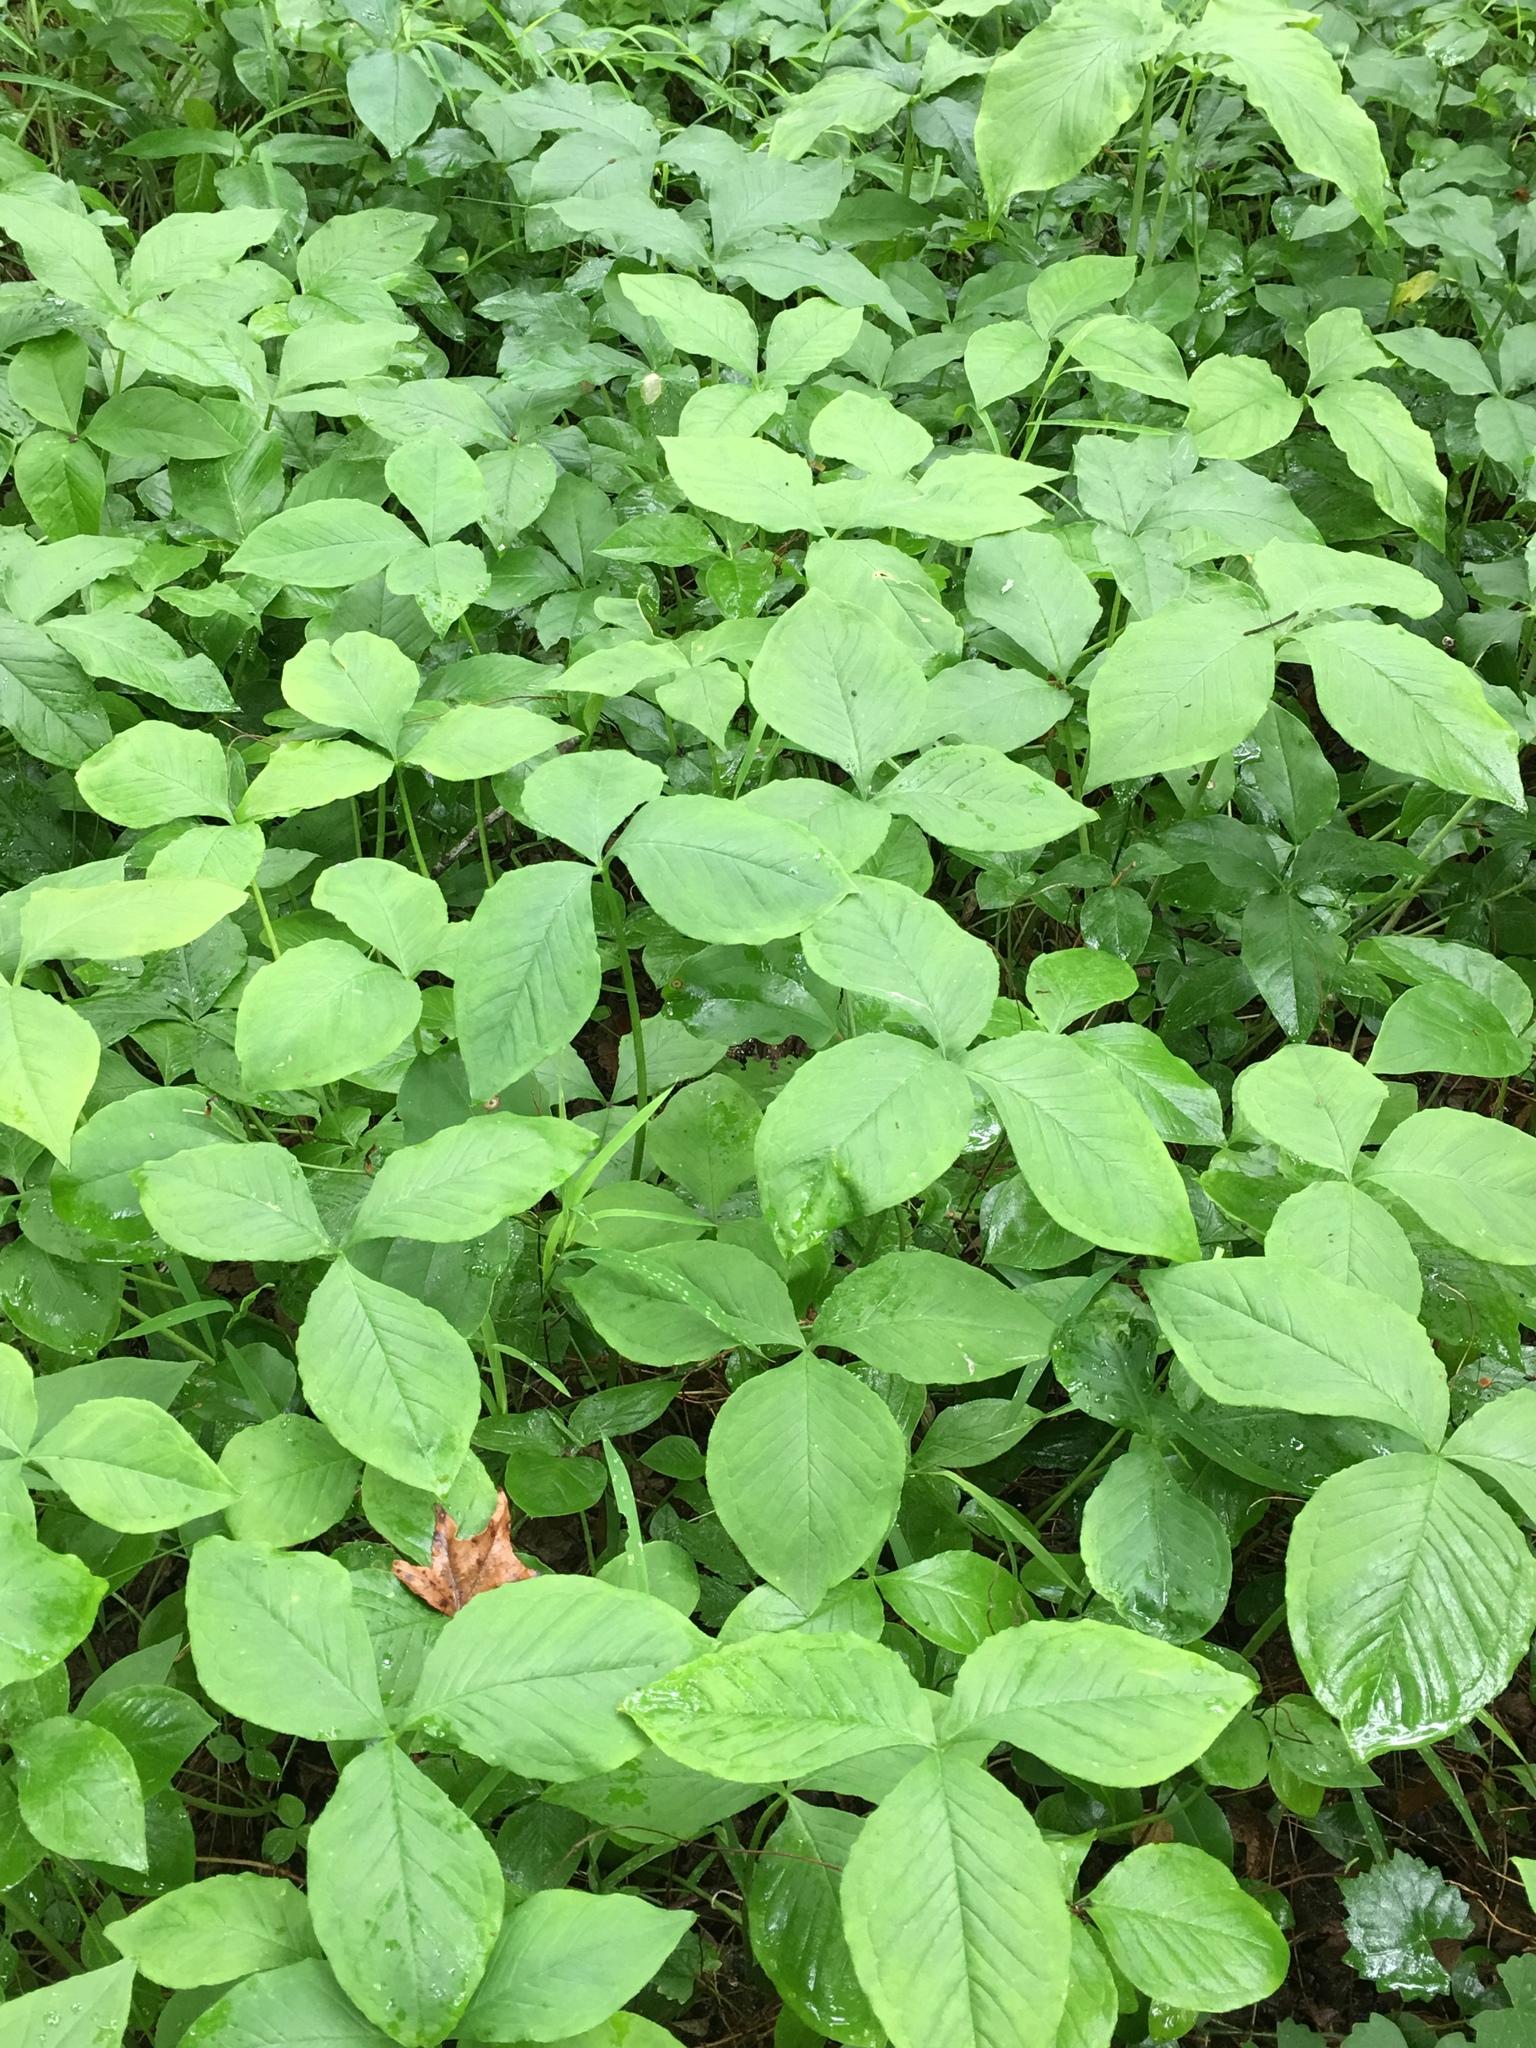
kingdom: Plantae
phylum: Tracheophyta
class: Liliopsida
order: Alismatales
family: Araceae
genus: Arisaema
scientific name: Arisaema triphyllum
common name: Jack-in-the-pulpit
